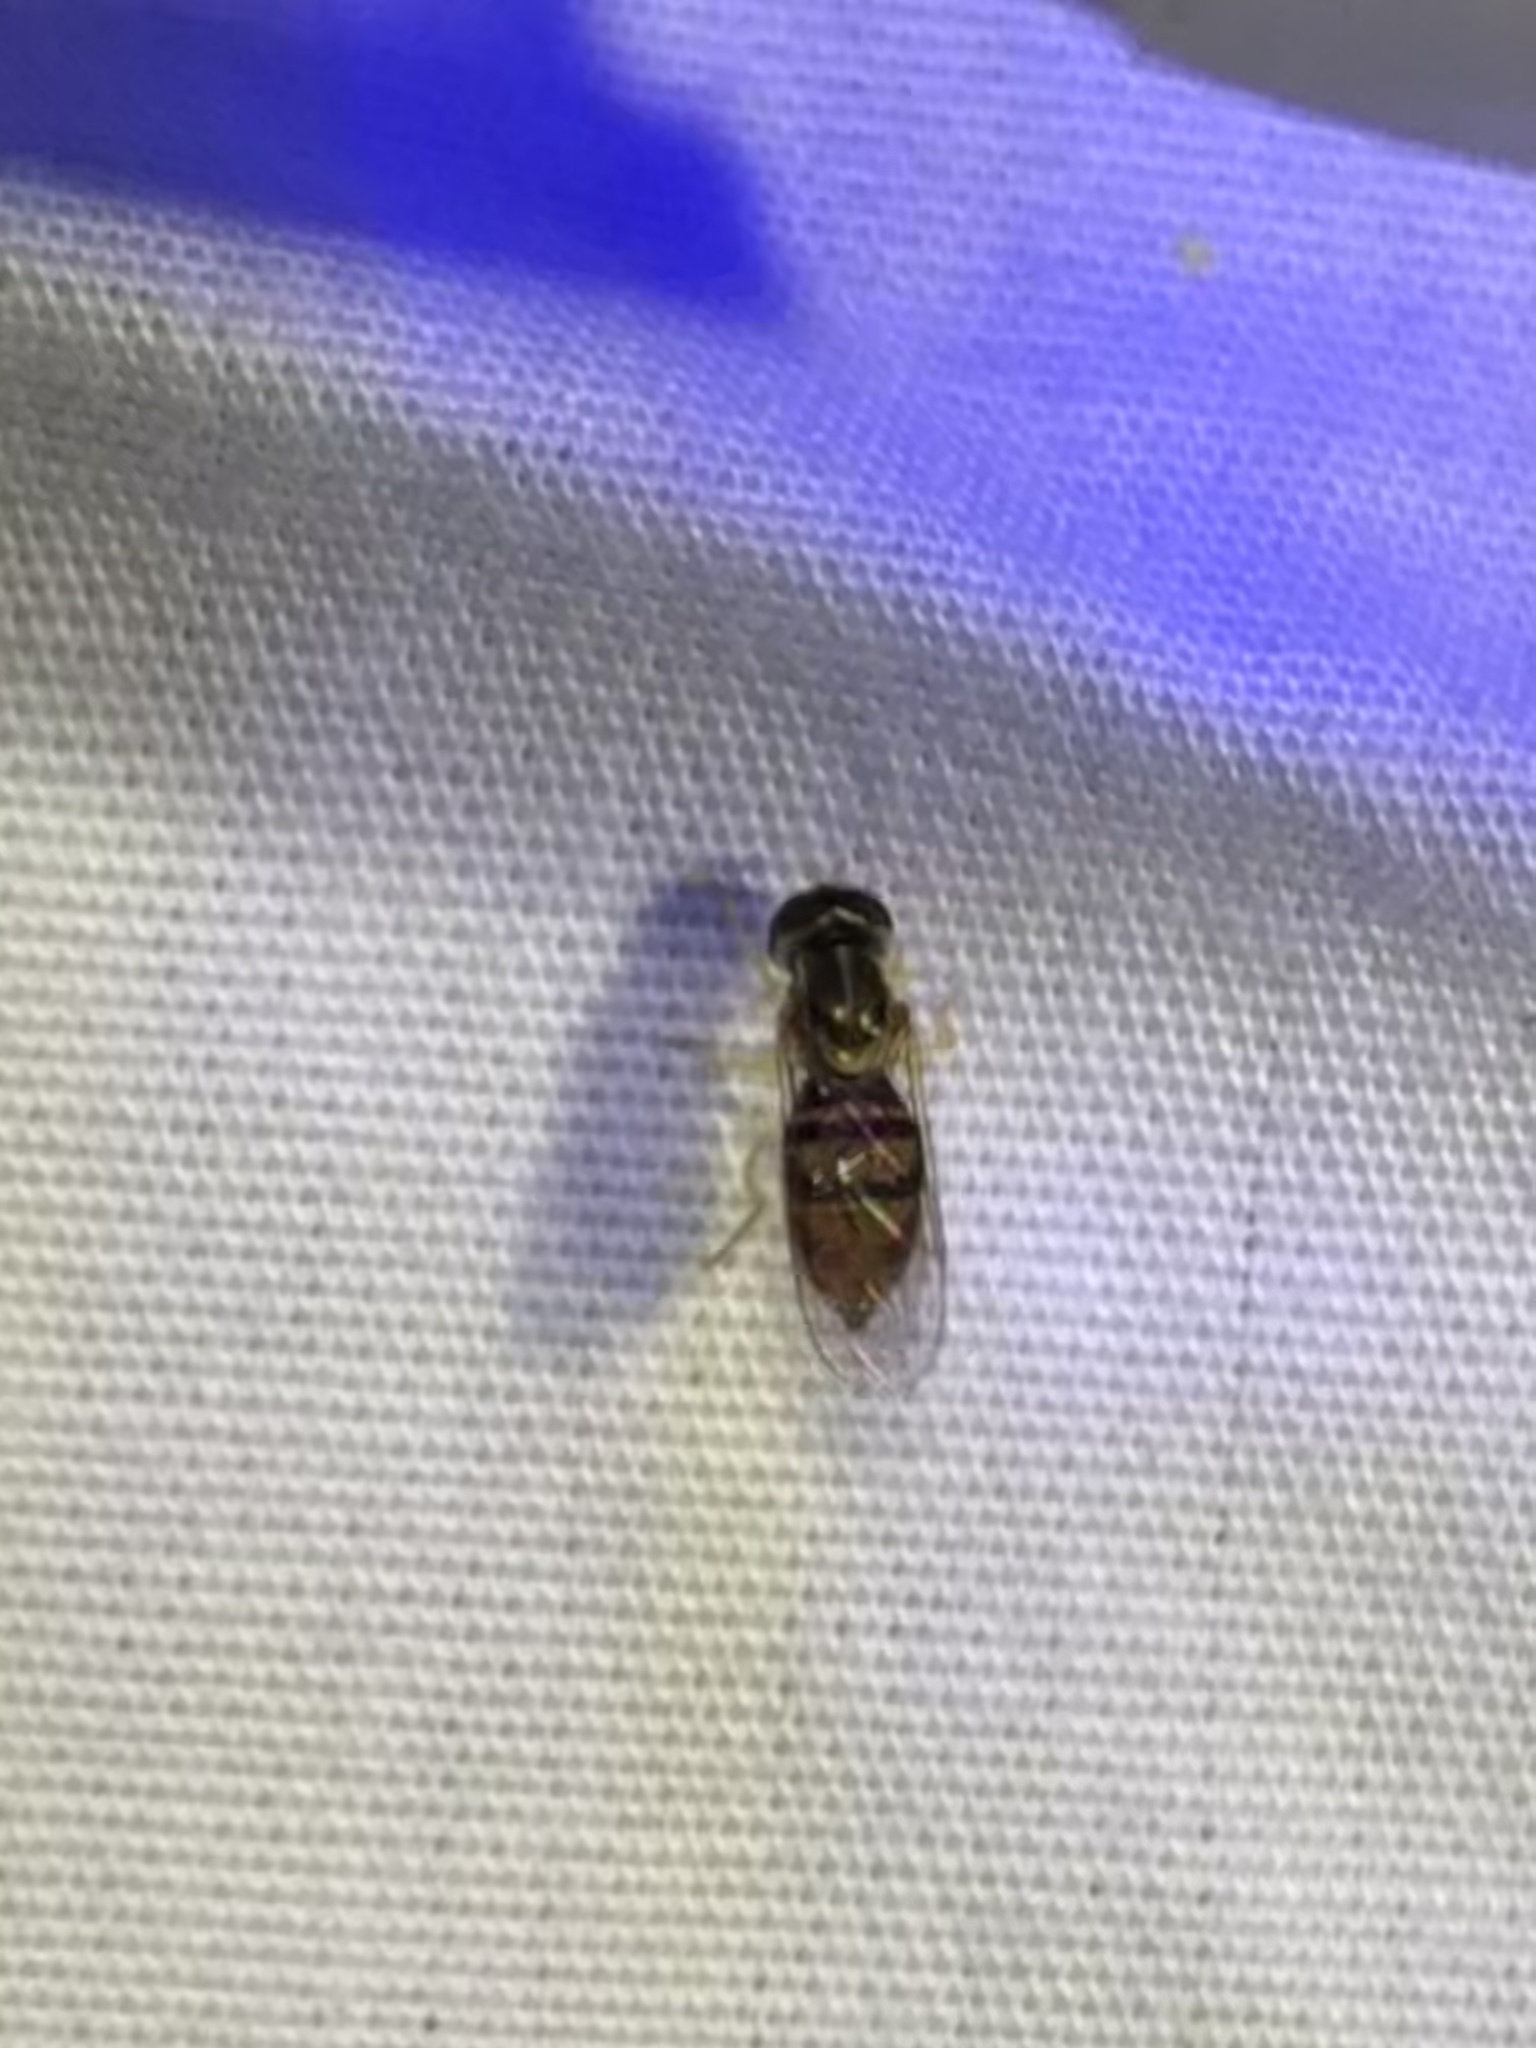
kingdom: Animalia
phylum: Arthropoda
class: Insecta
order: Diptera
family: Syrphidae
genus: Toxomerus
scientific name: Toxomerus marginatus
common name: Syrphid fly
